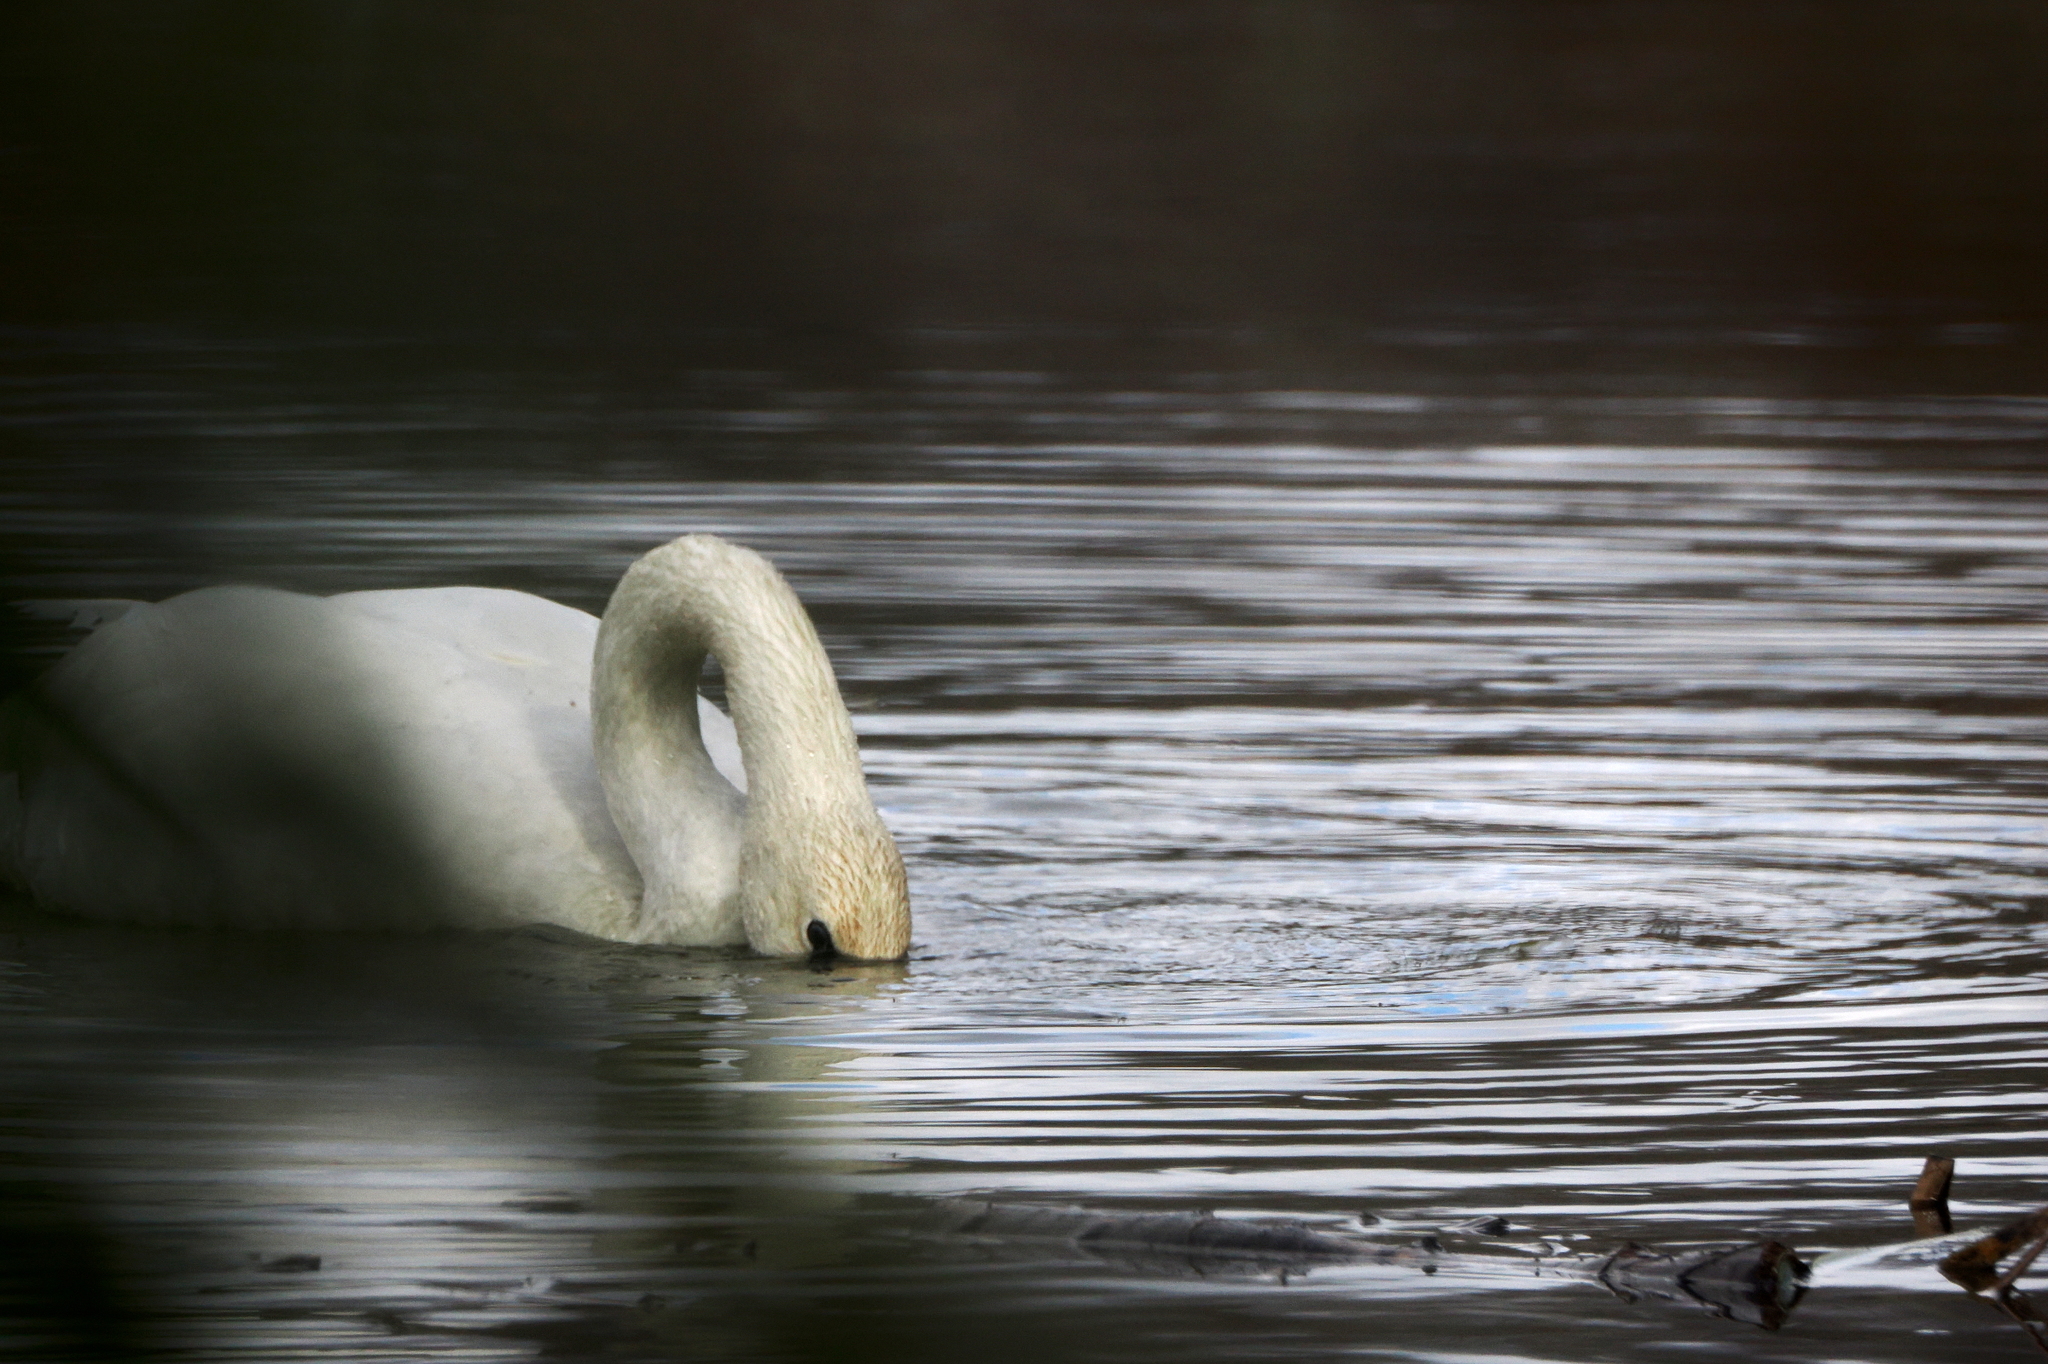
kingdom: Animalia
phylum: Chordata
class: Aves
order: Anseriformes
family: Anatidae
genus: Cygnus
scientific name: Cygnus buccinator
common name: Trumpeter swan
